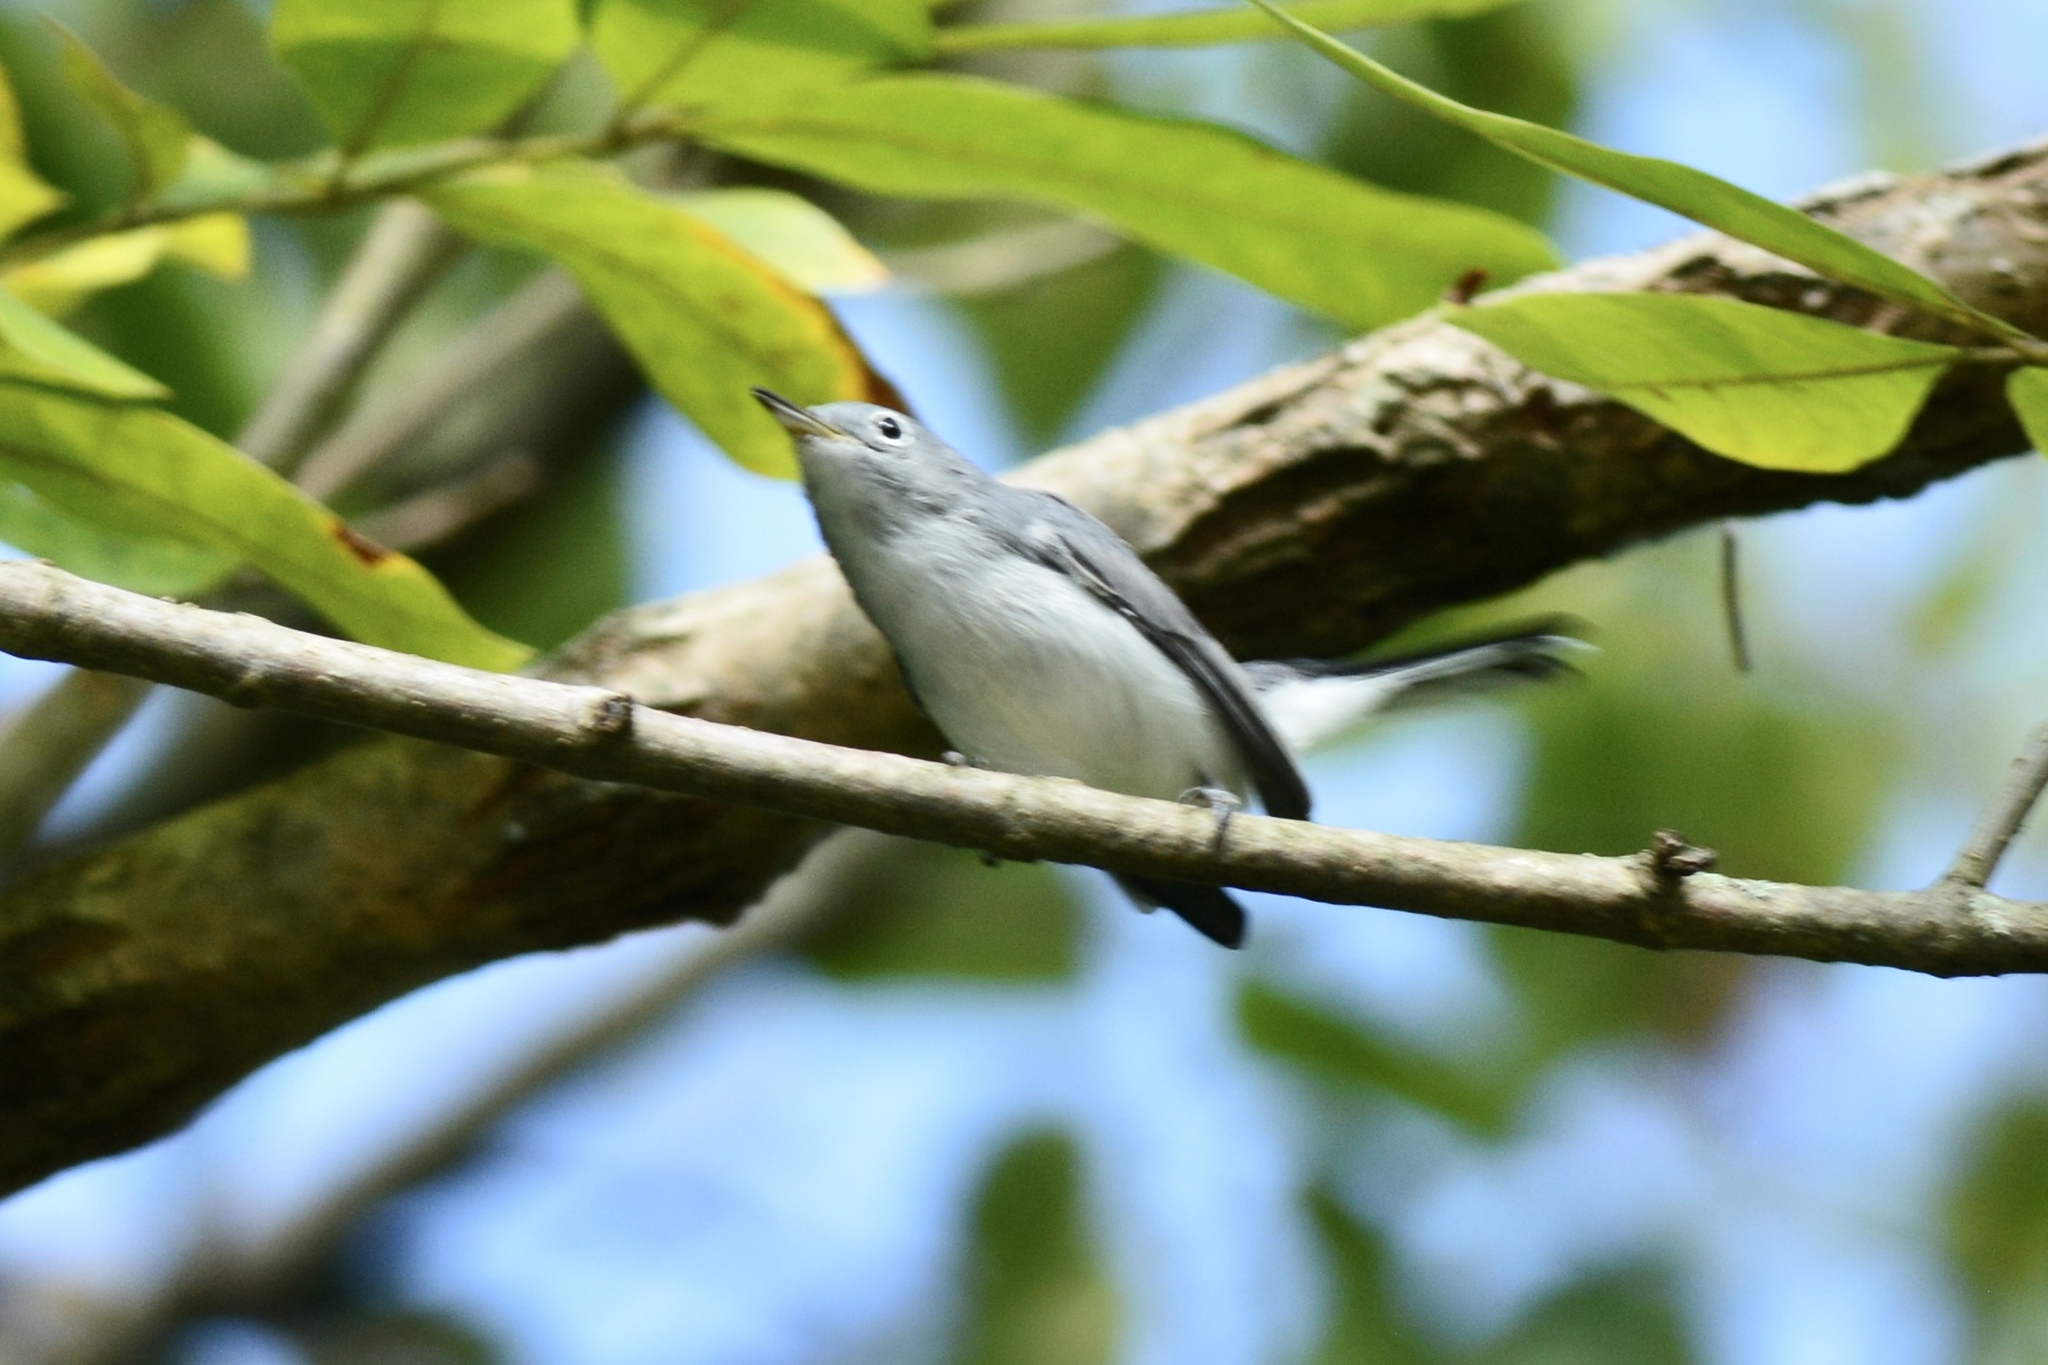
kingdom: Animalia
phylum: Chordata
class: Aves
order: Passeriformes
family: Polioptilidae
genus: Polioptila
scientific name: Polioptila caerulea
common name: Blue-gray gnatcatcher
